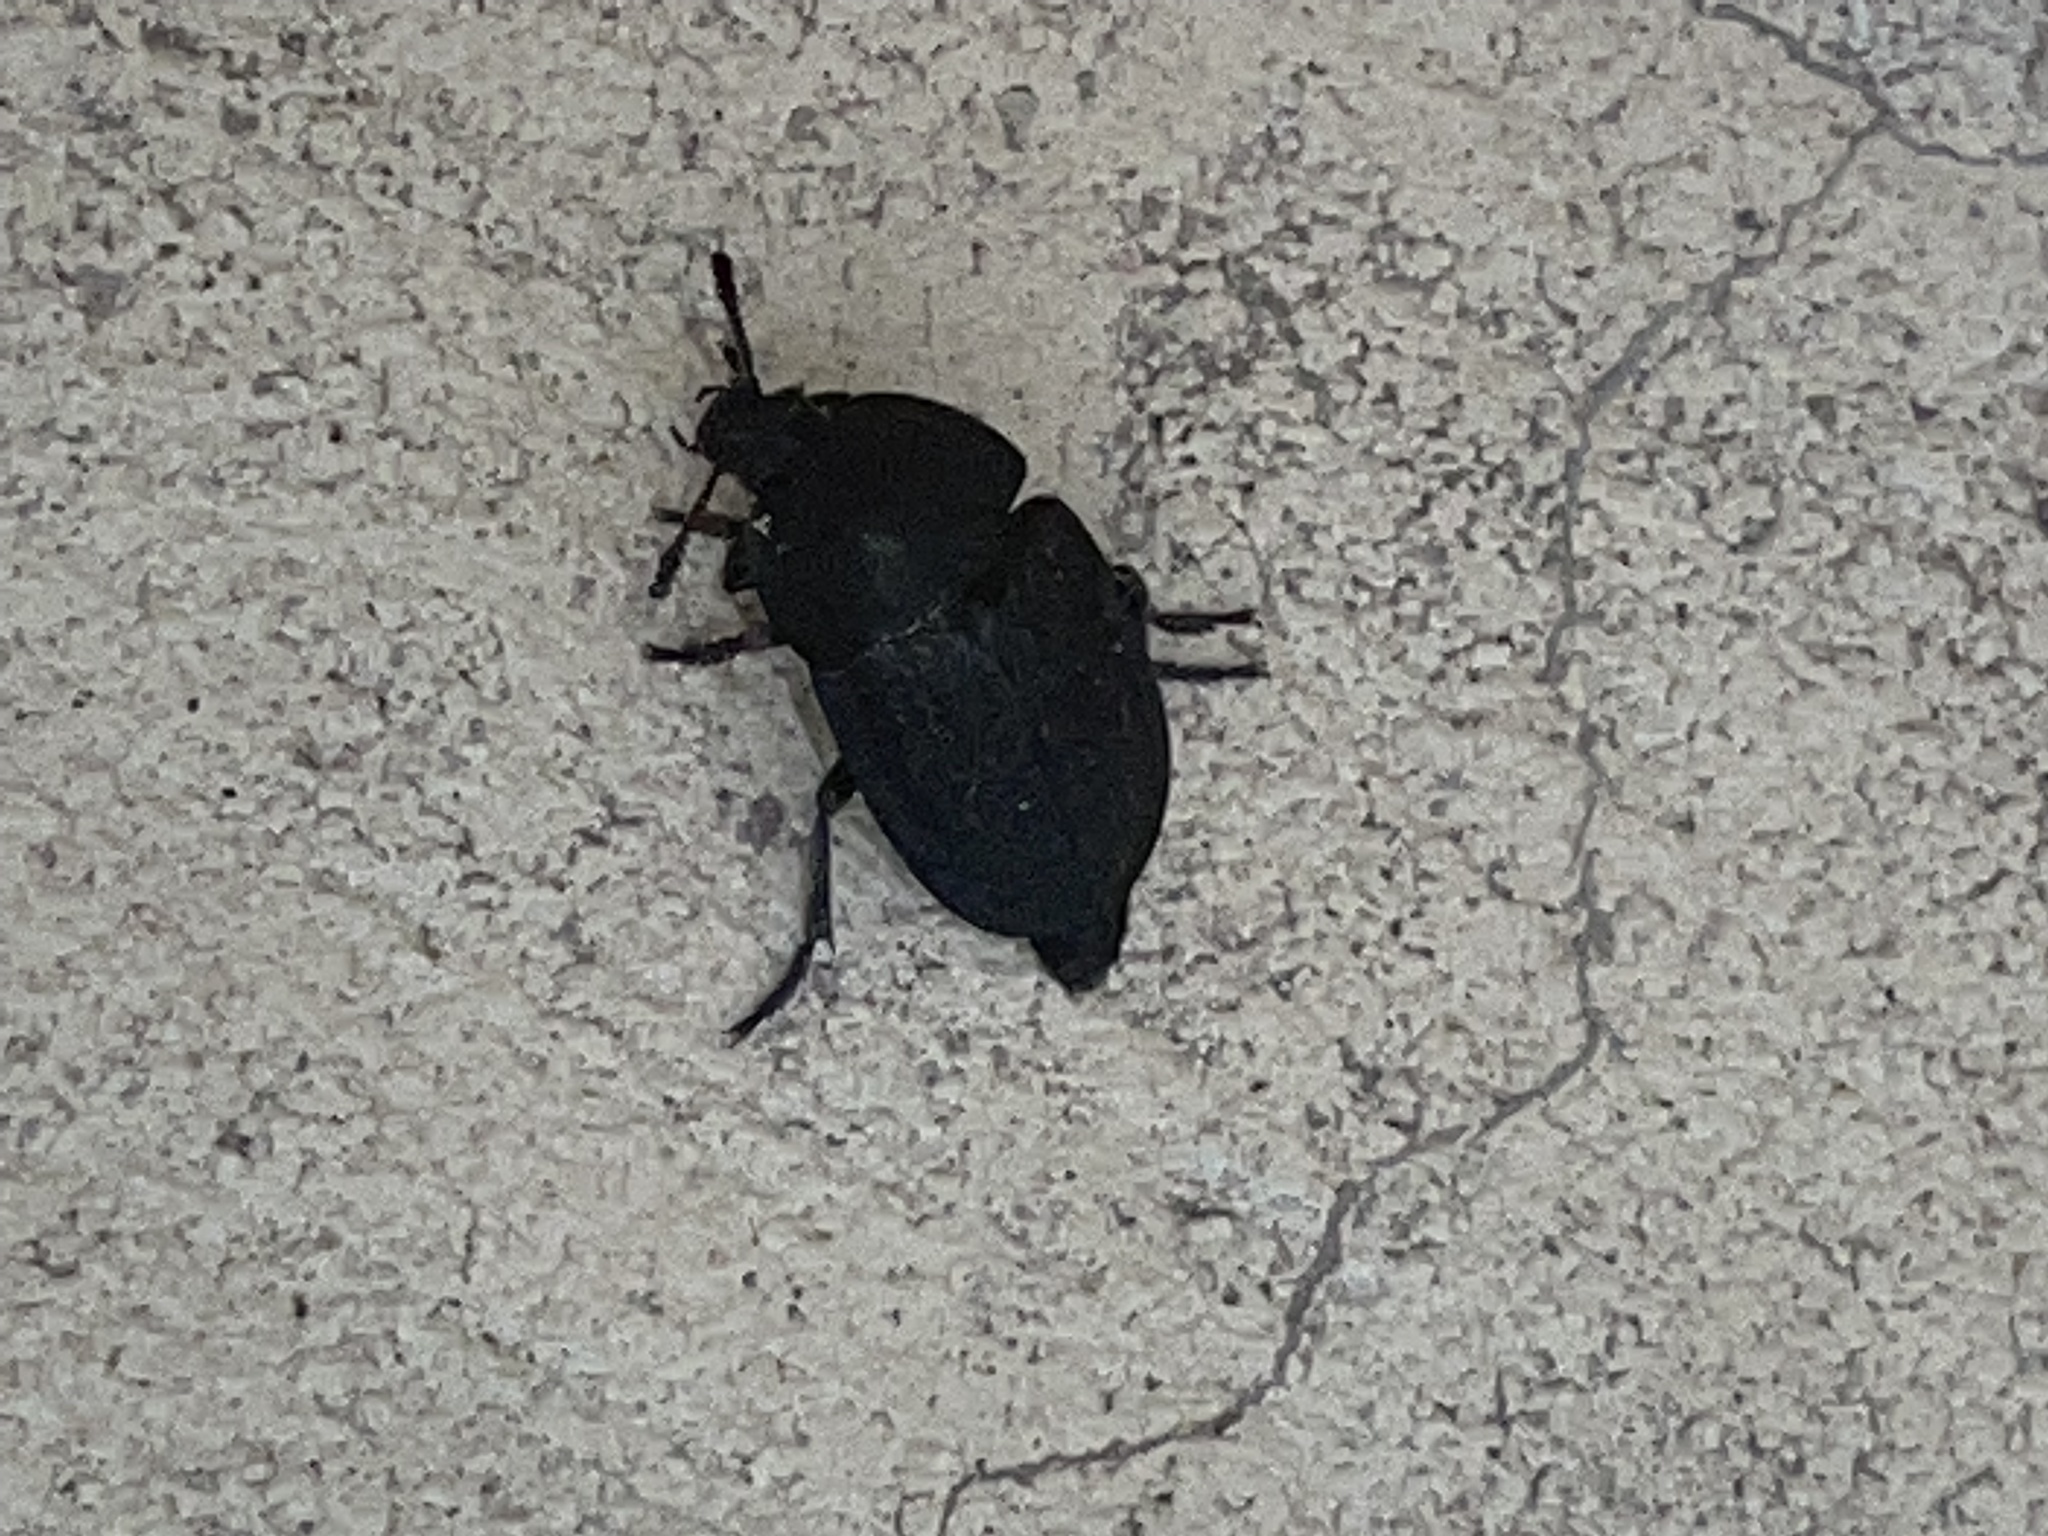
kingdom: Animalia
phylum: Arthropoda
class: Insecta
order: Coleoptera
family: Staphylinidae
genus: Heterosilpha
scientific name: Heterosilpha ramosa
